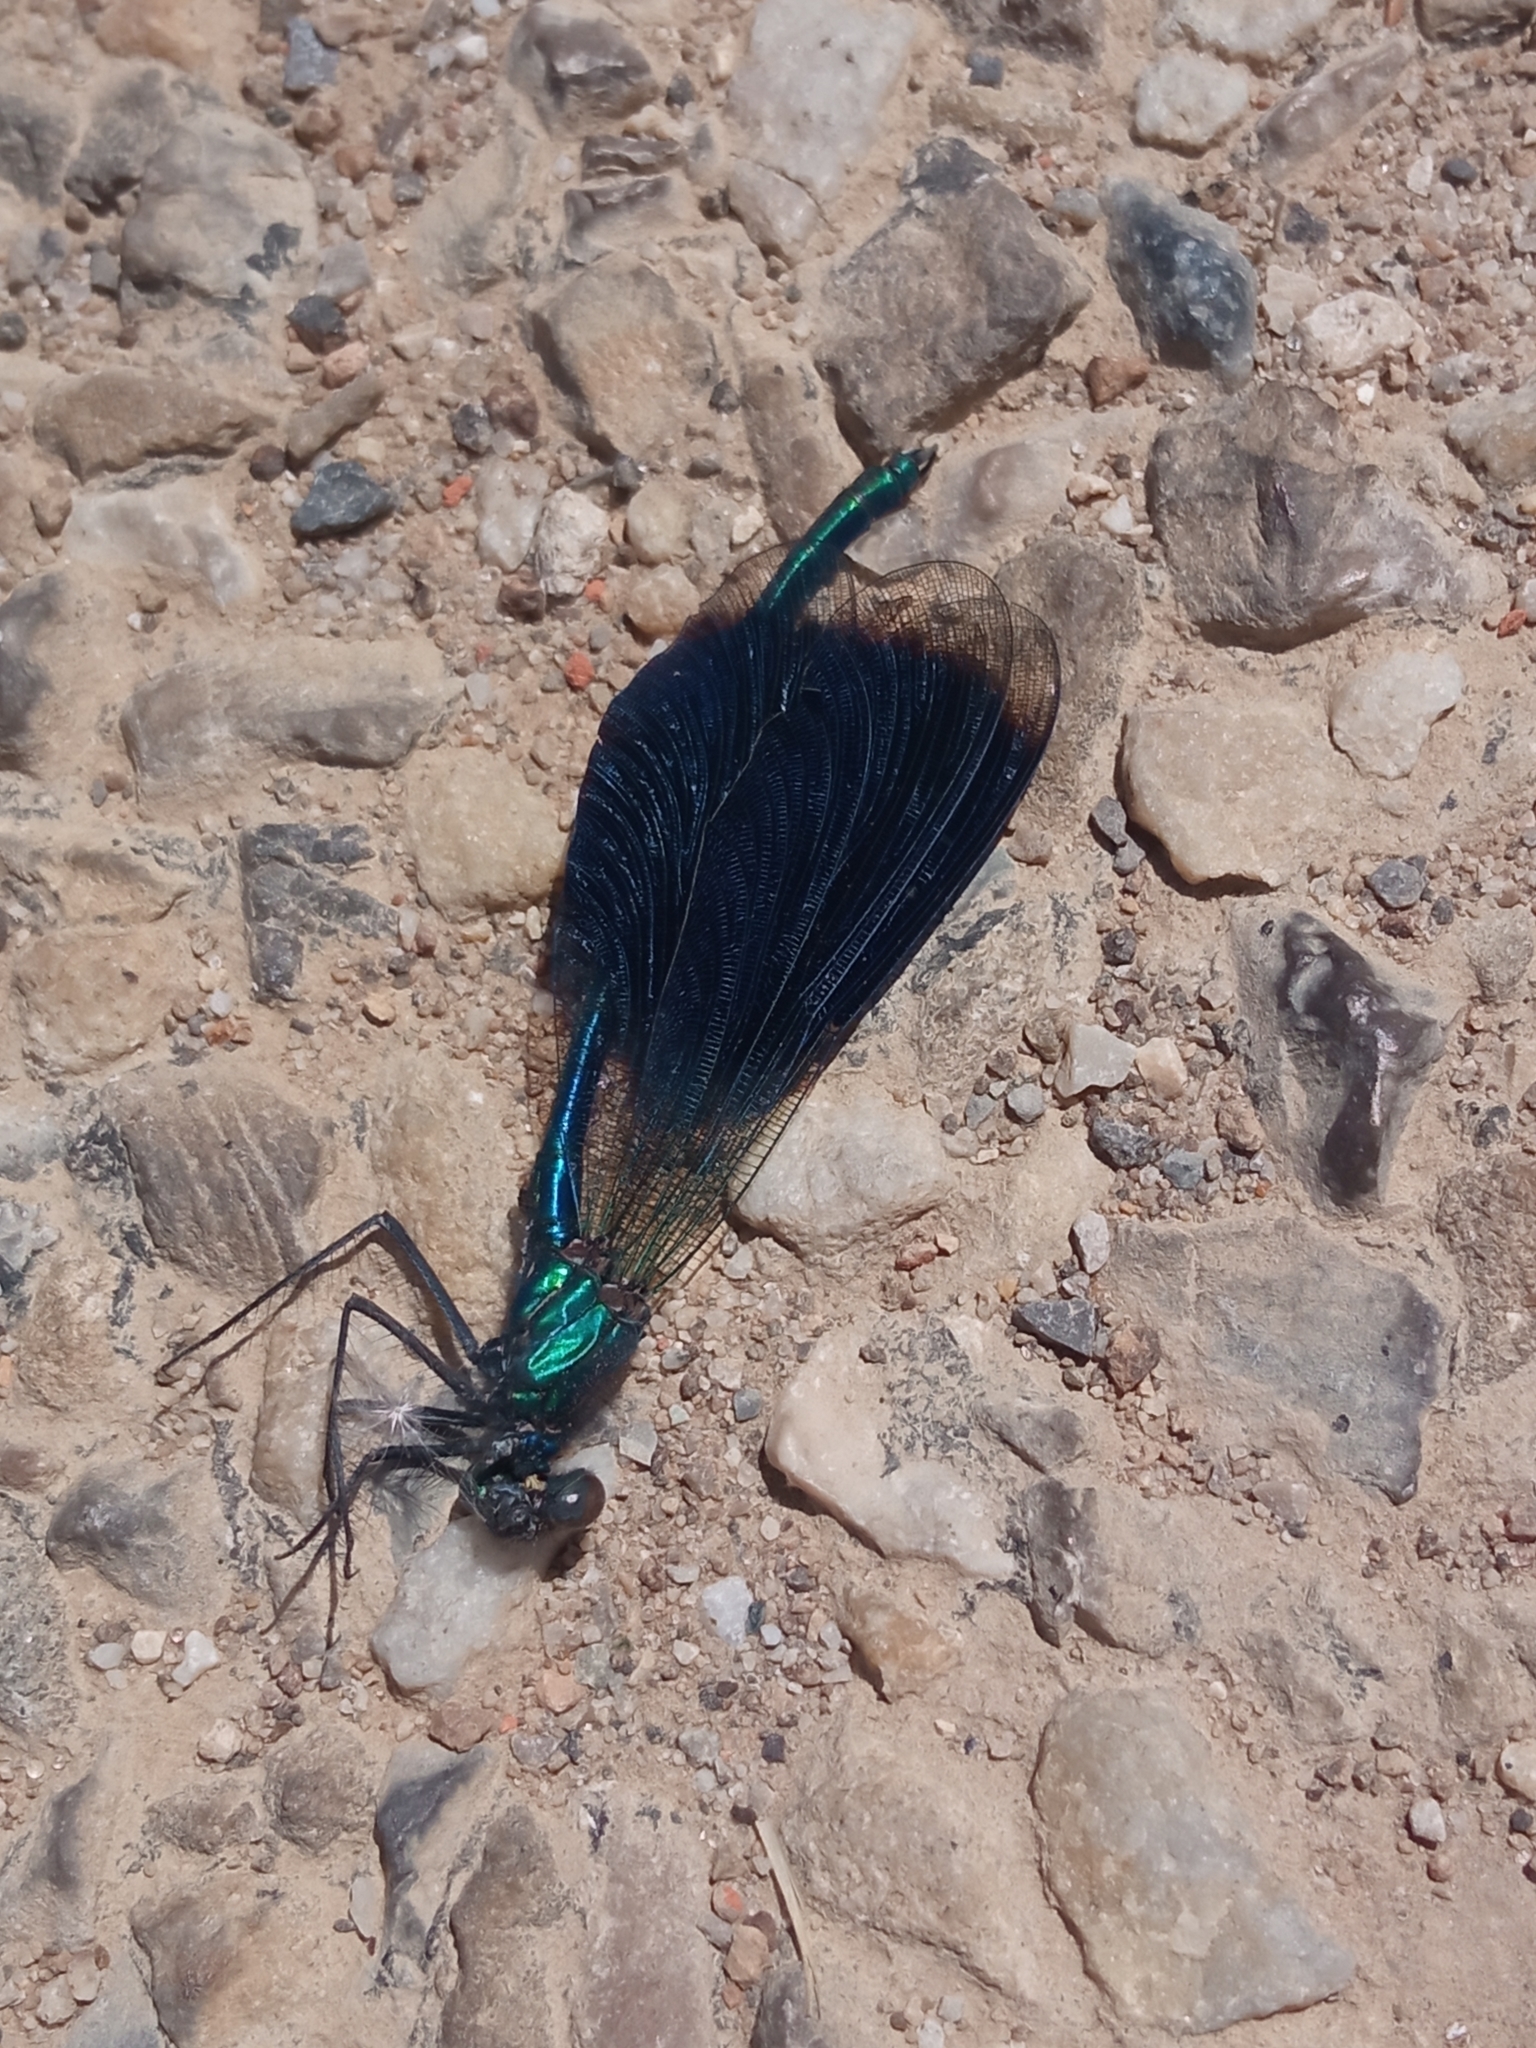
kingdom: Animalia
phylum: Arthropoda
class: Insecta
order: Odonata
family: Calopterygidae
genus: Calopteryx
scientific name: Calopteryx splendens
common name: Banded demoiselle
